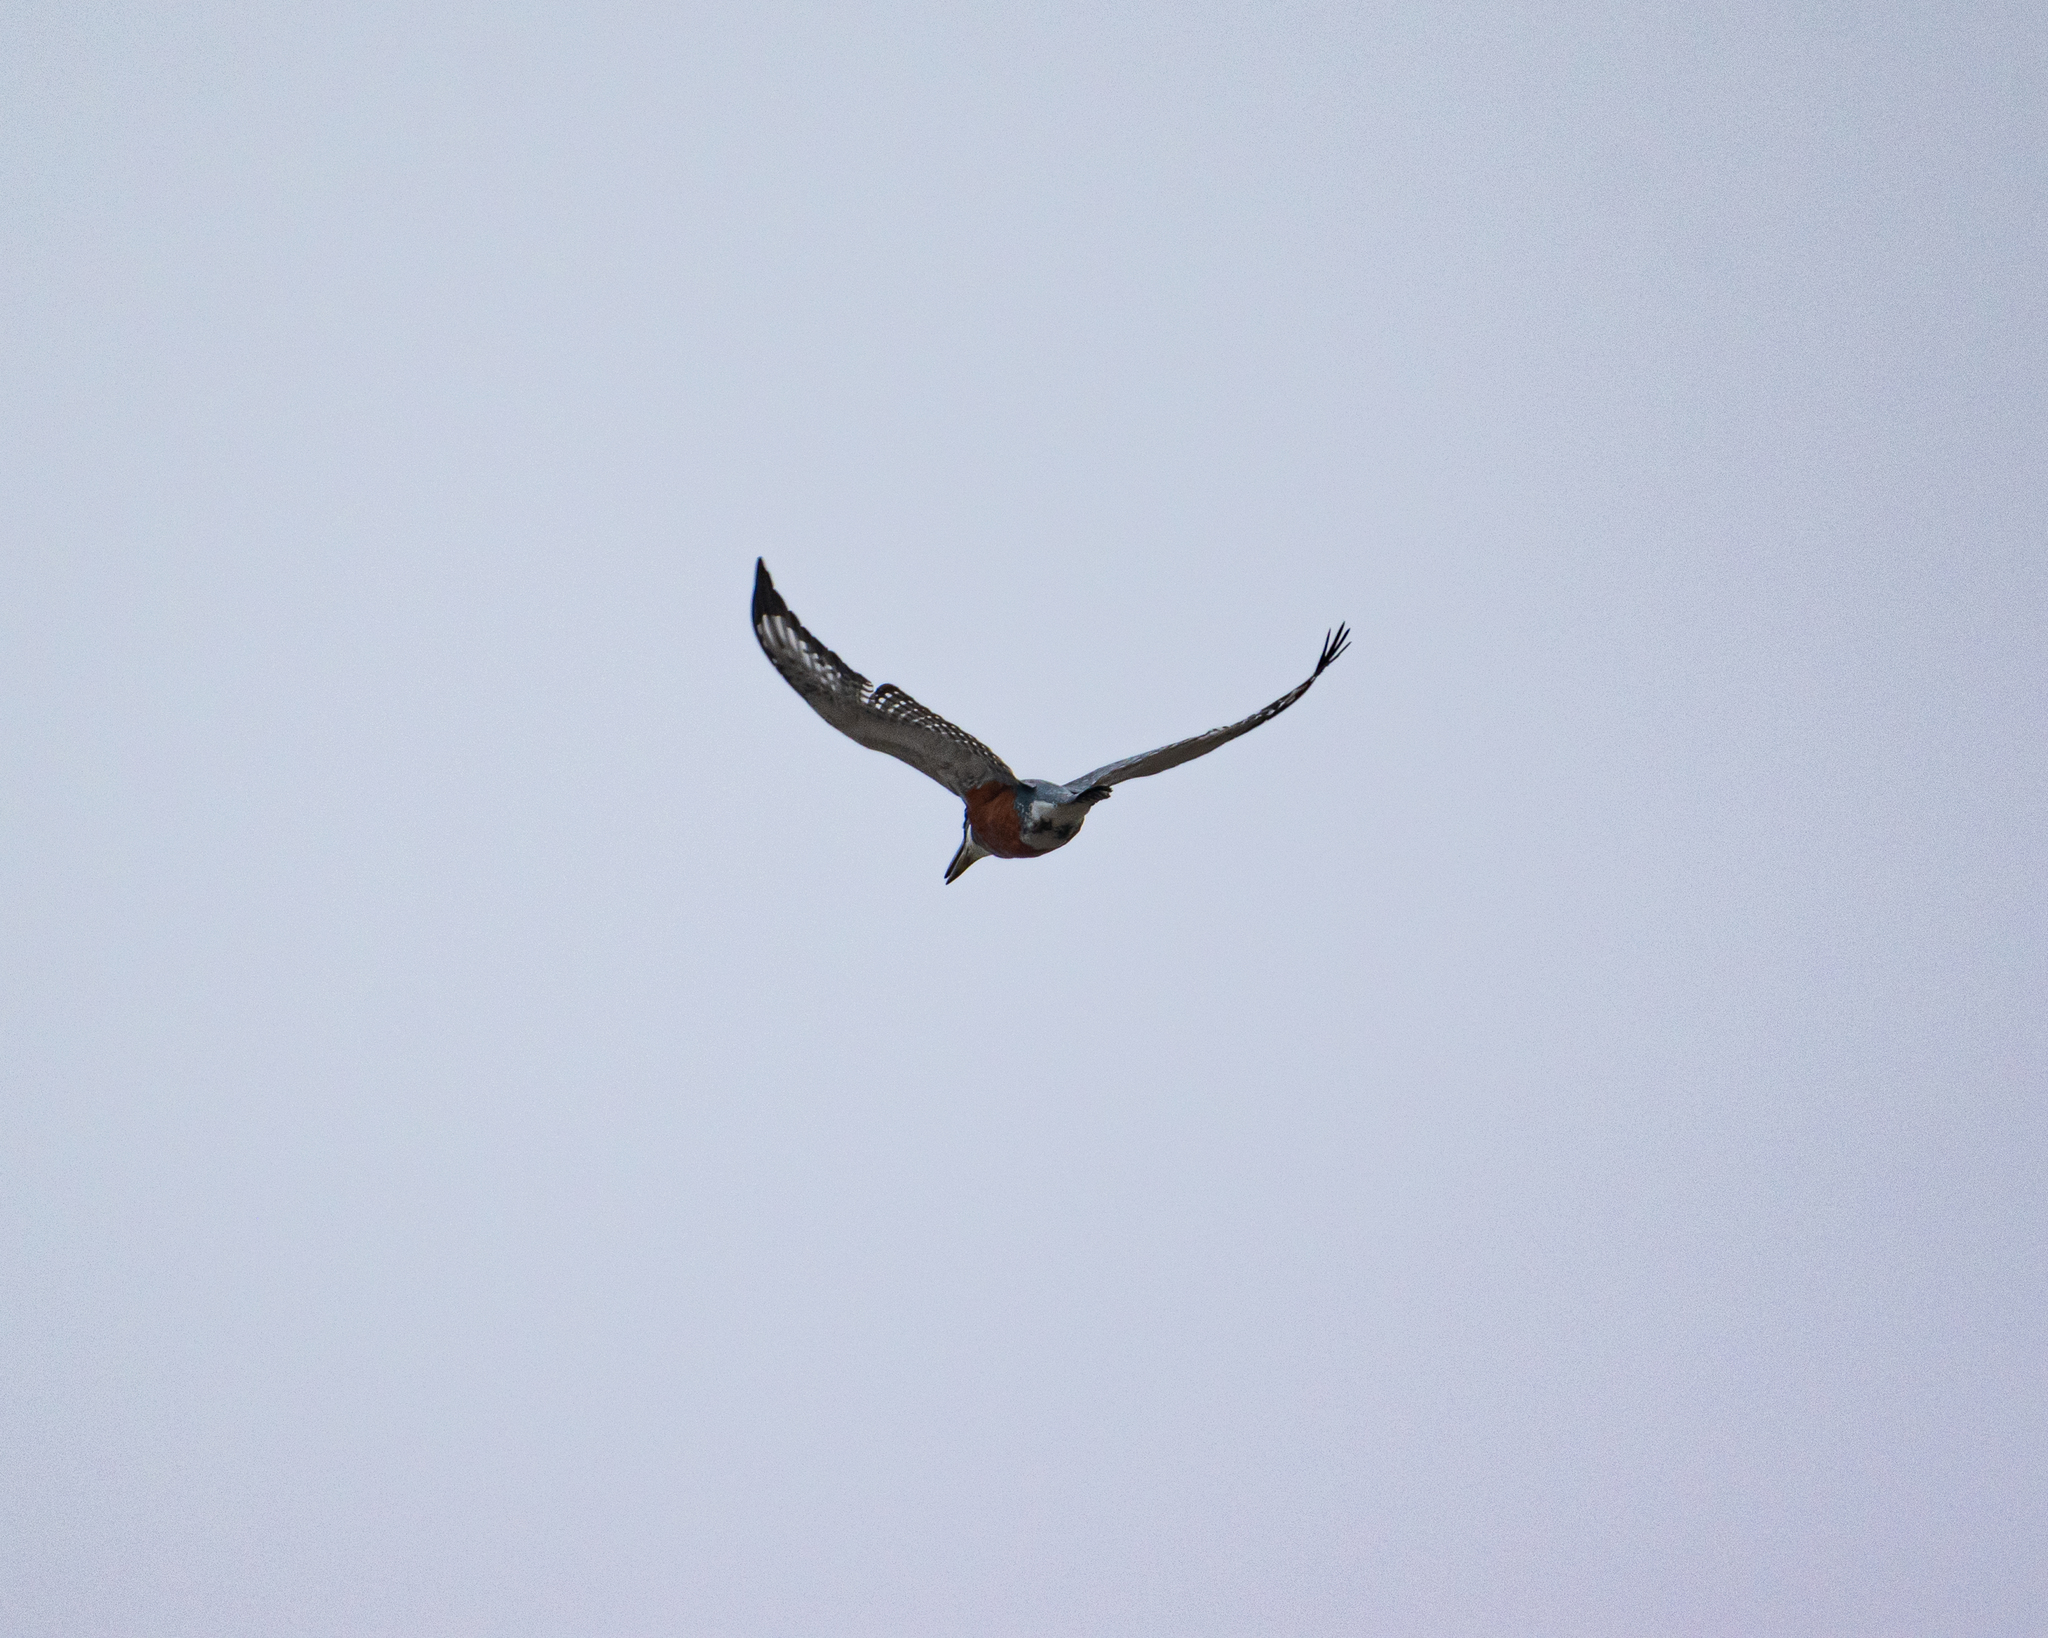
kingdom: Animalia
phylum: Chordata
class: Aves
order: Coraciiformes
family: Alcedinidae
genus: Megaceryle
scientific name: Megaceryle torquata
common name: Ringed kingfisher
